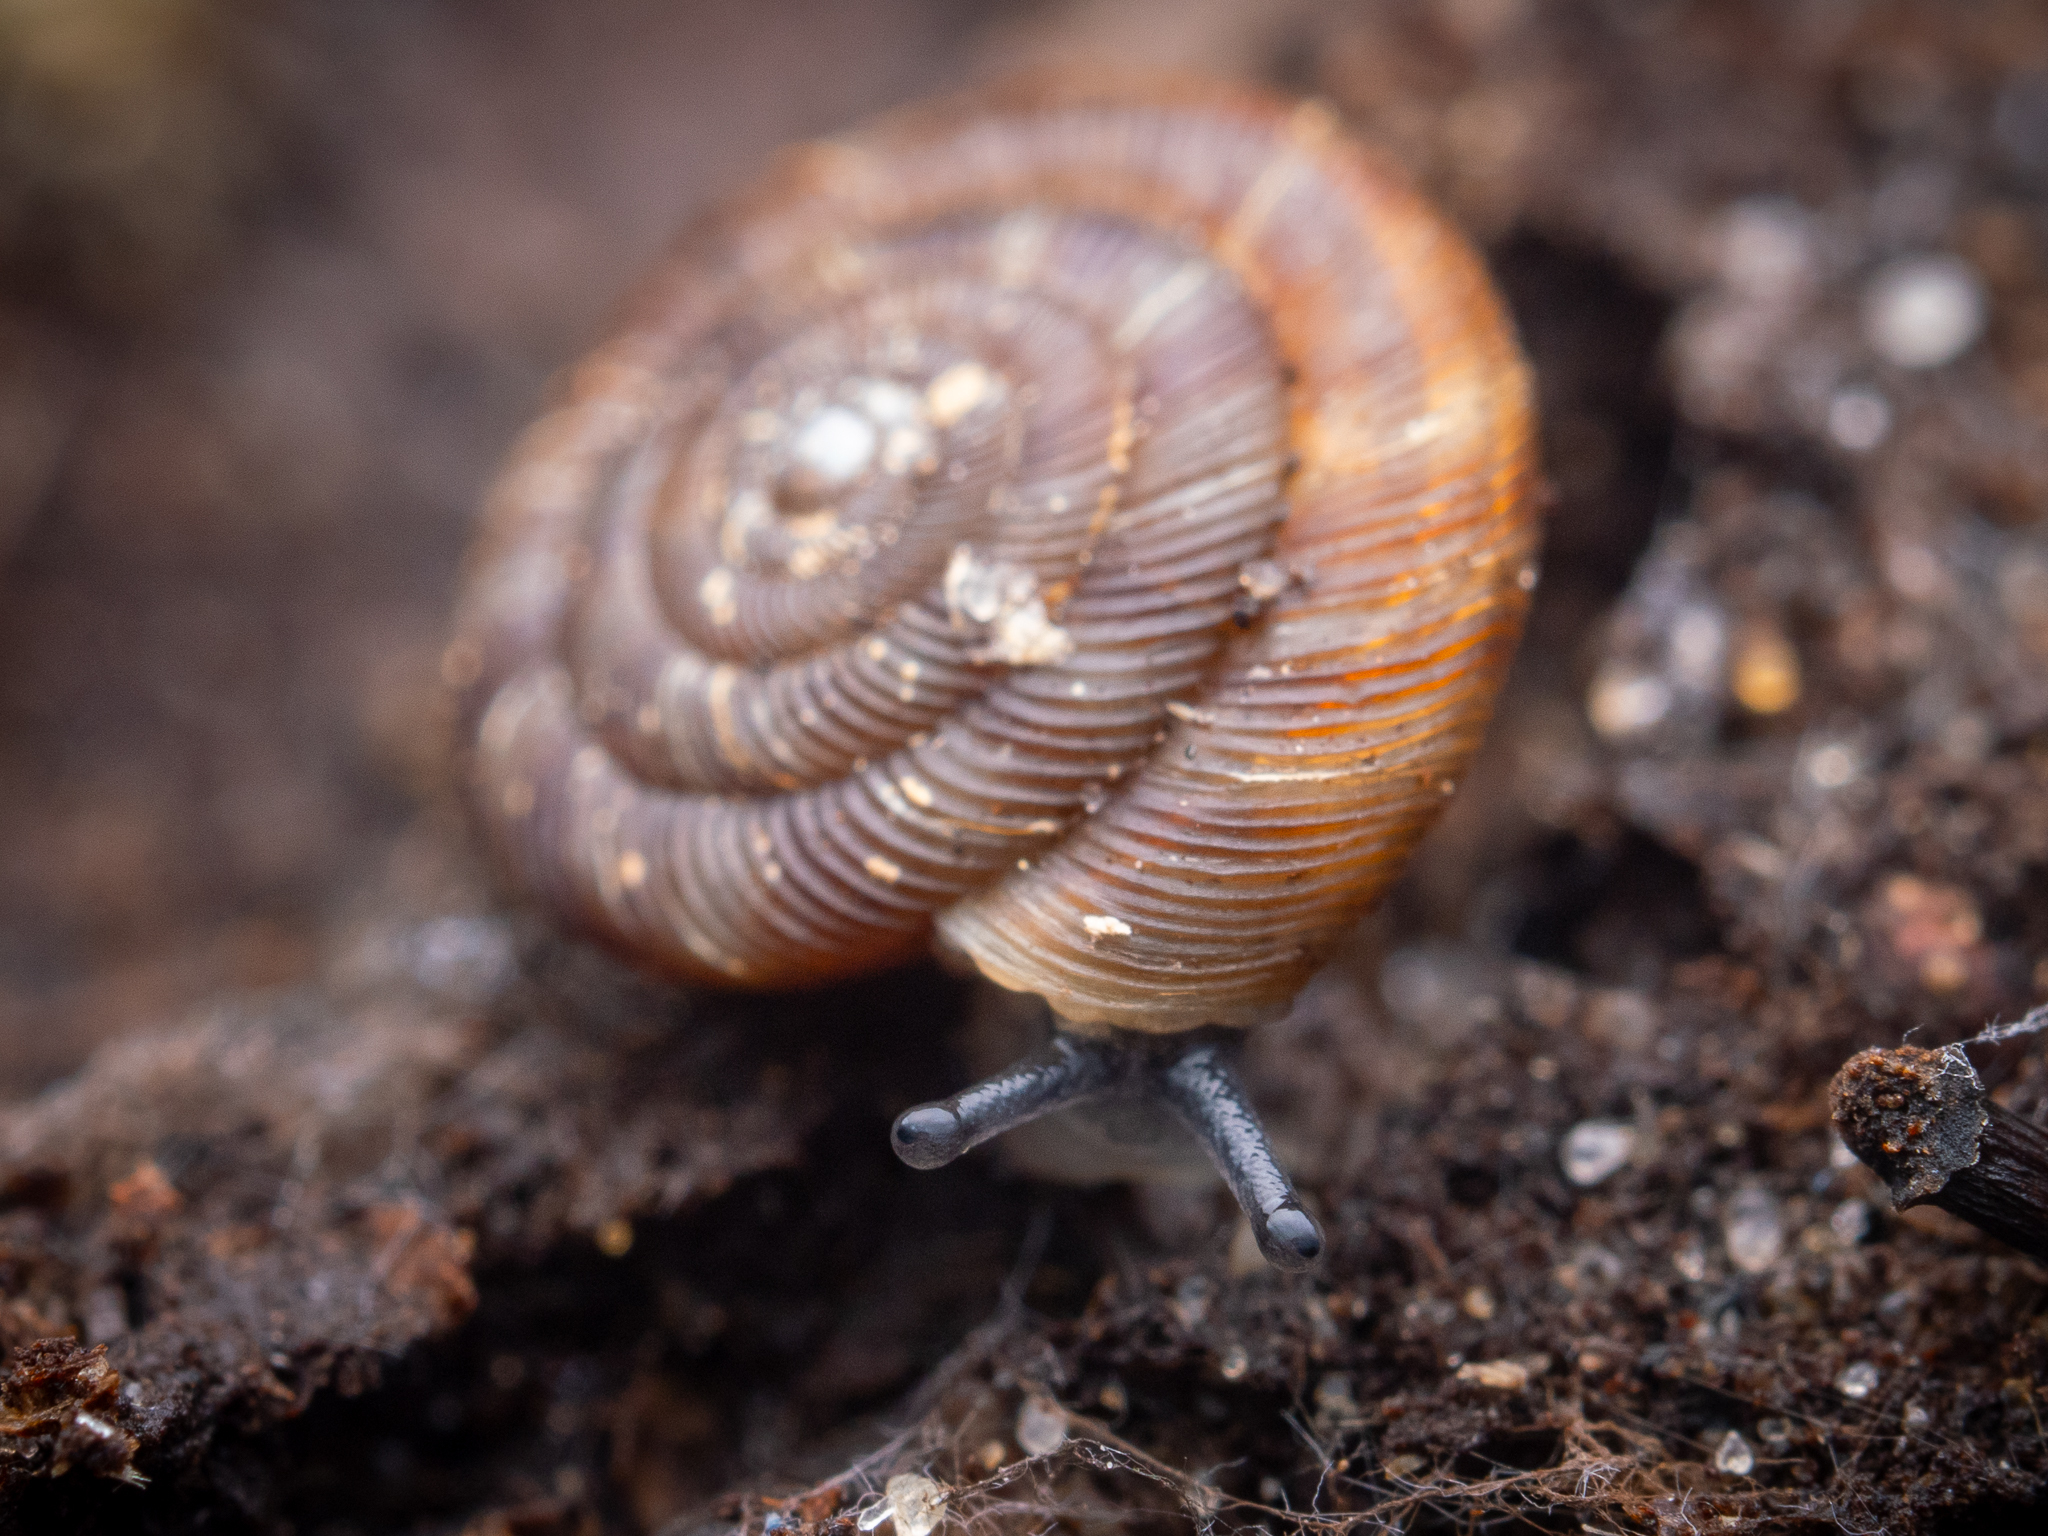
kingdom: Animalia
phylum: Mollusca
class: Gastropoda
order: Stylommatophora
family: Discidae
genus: Discus
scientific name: Discus rotundatus
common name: Rounded snail
